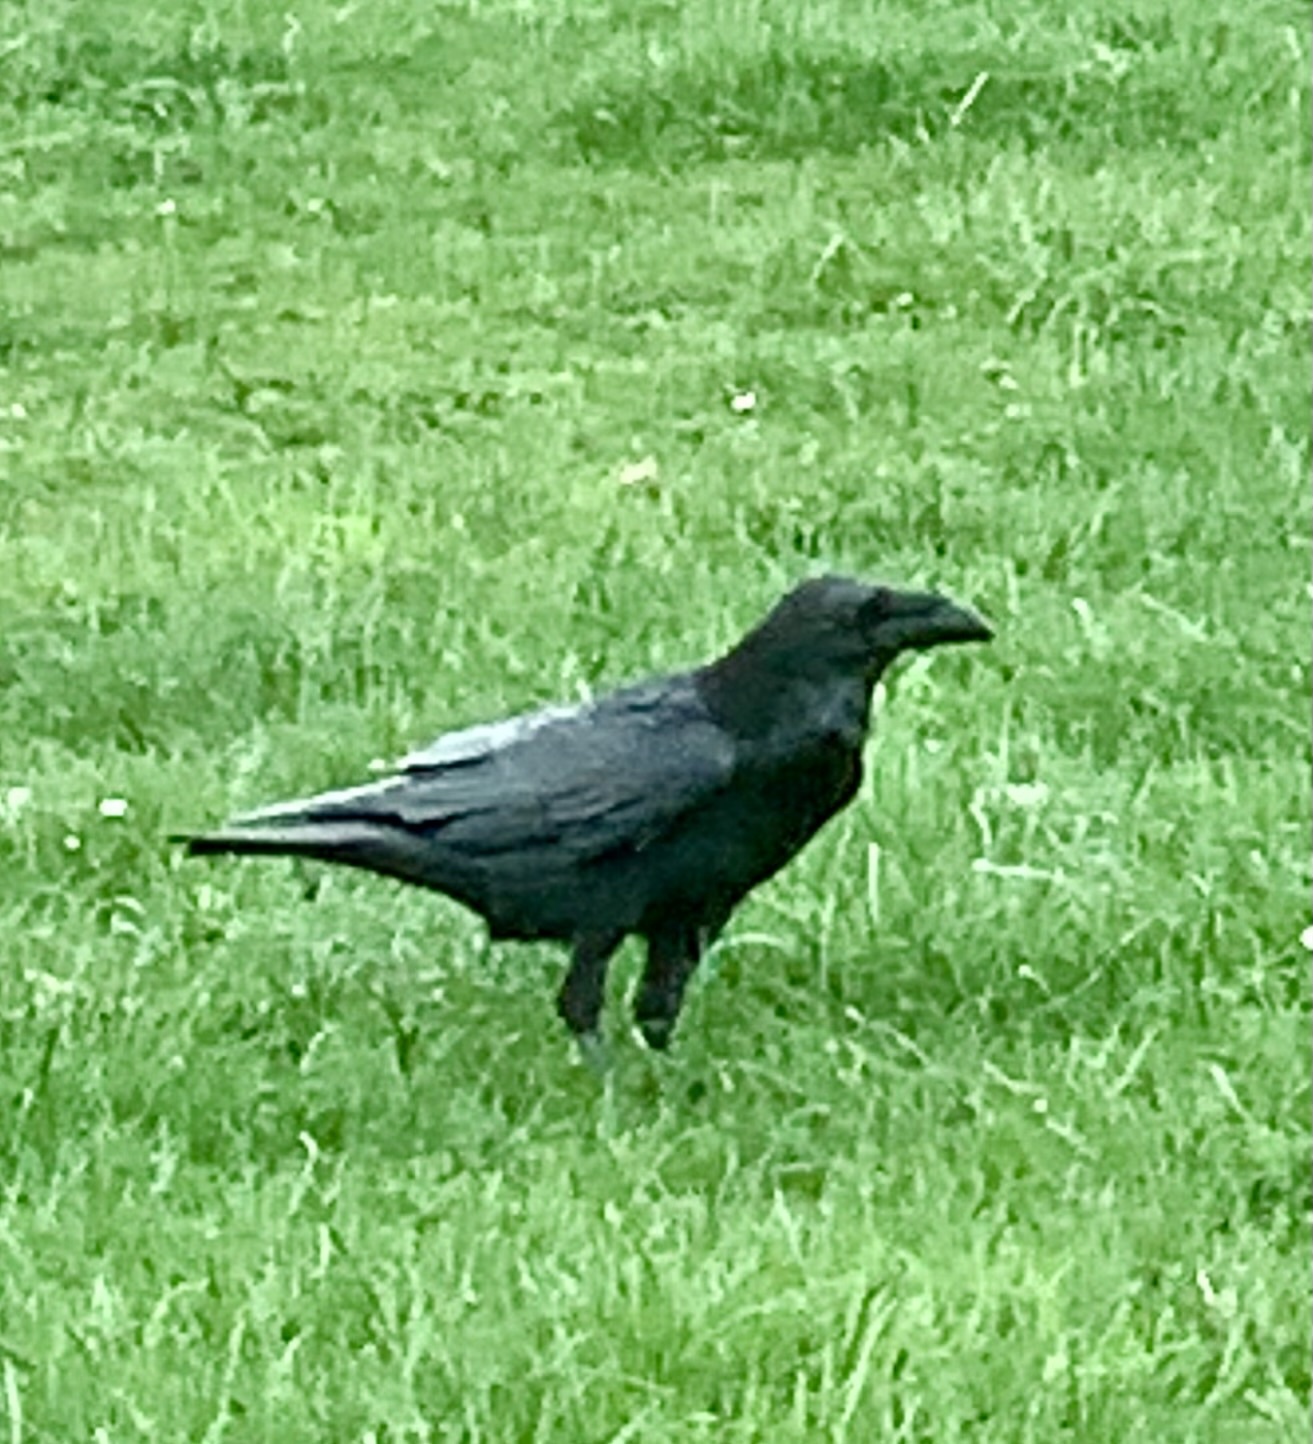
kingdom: Animalia
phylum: Chordata
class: Aves
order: Passeriformes
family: Corvidae
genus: Corvus
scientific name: Corvus corax
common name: Common raven
